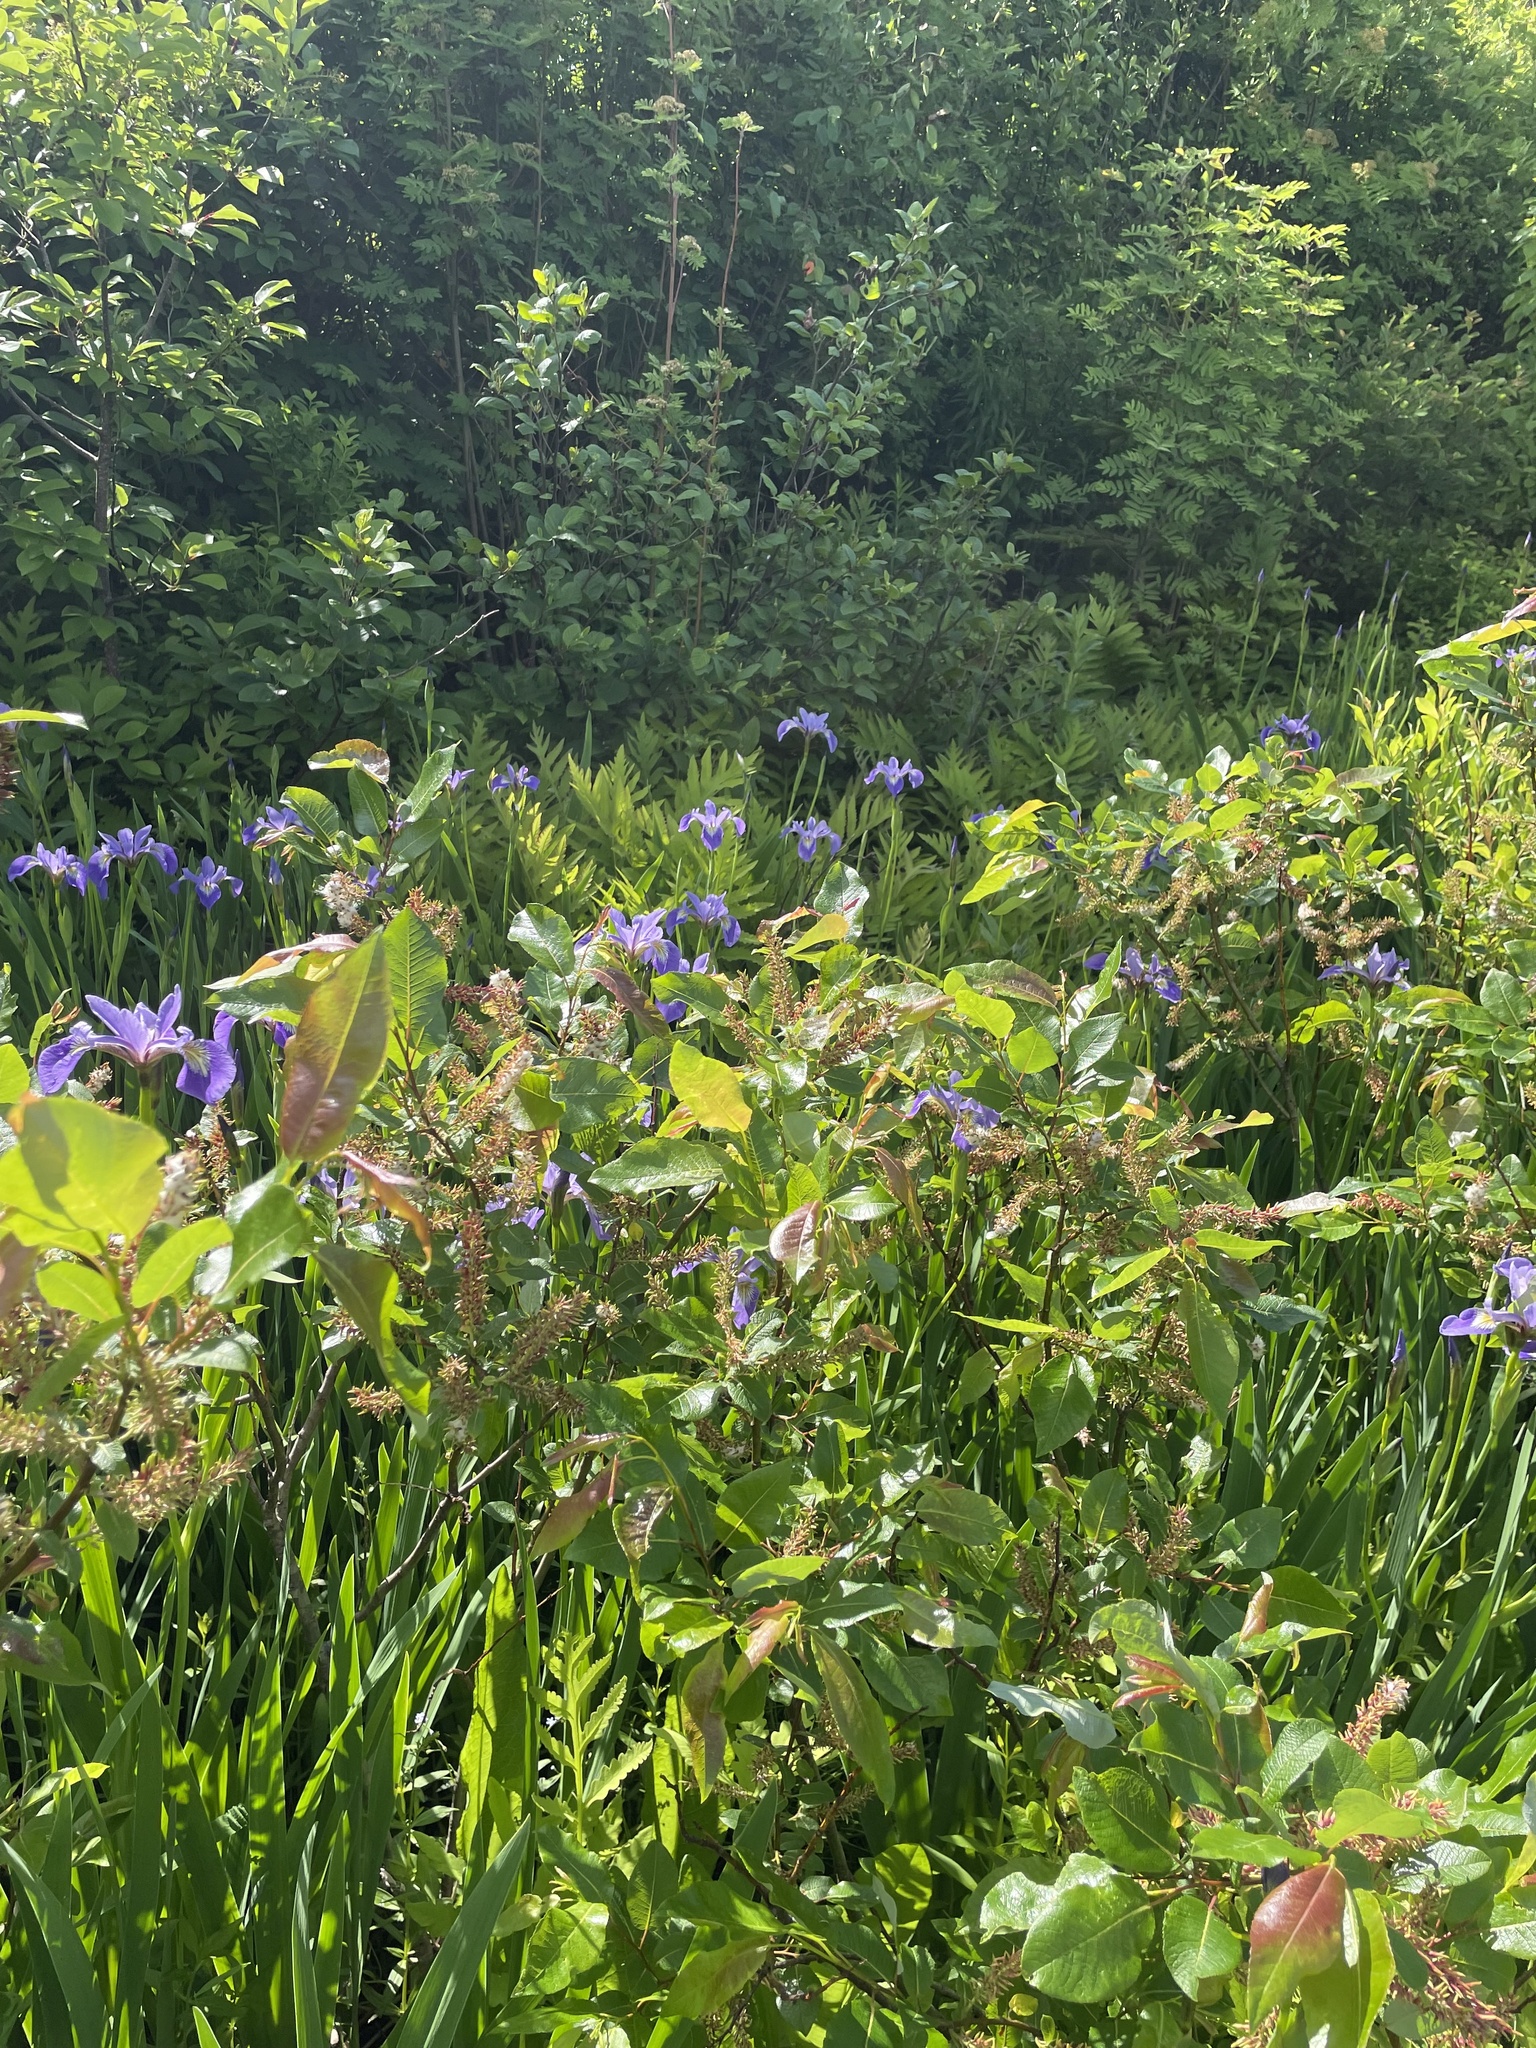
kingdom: Plantae
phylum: Tracheophyta
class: Liliopsida
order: Asparagales
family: Iridaceae
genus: Iris
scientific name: Iris versicolor
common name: Purple iris
